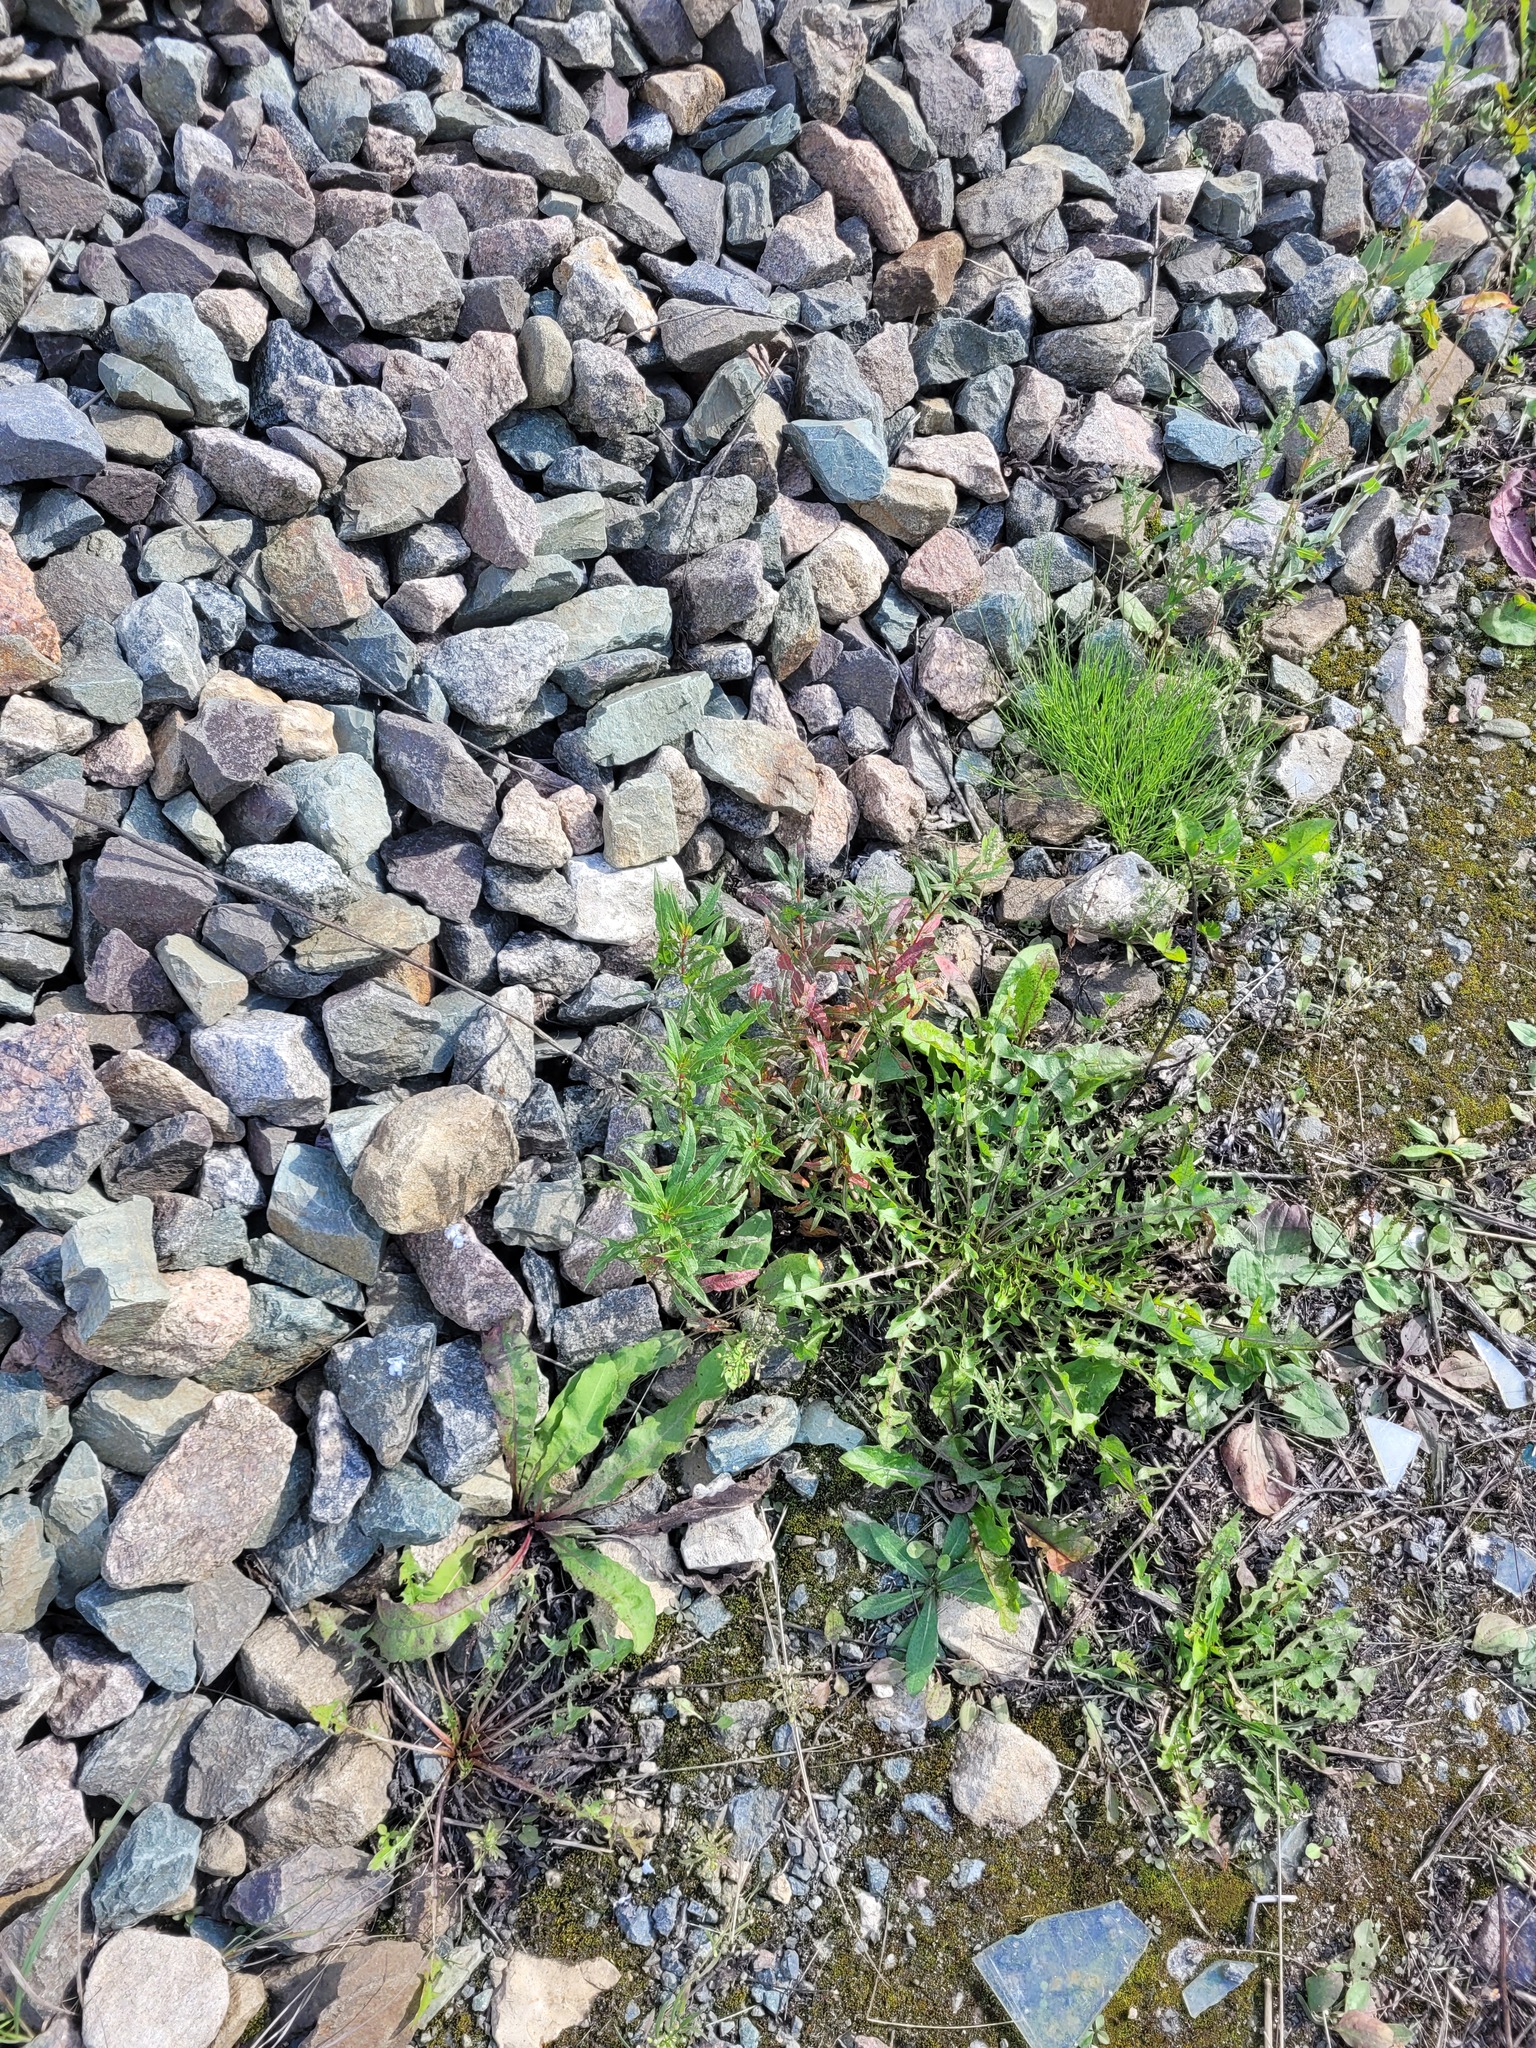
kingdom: Plantae
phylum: Tracheophyta
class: Magnoliopsida
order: Myrtales
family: Onagraceae
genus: Chamaenerion
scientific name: Chamaenerion angustifolium
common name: Fireweed
